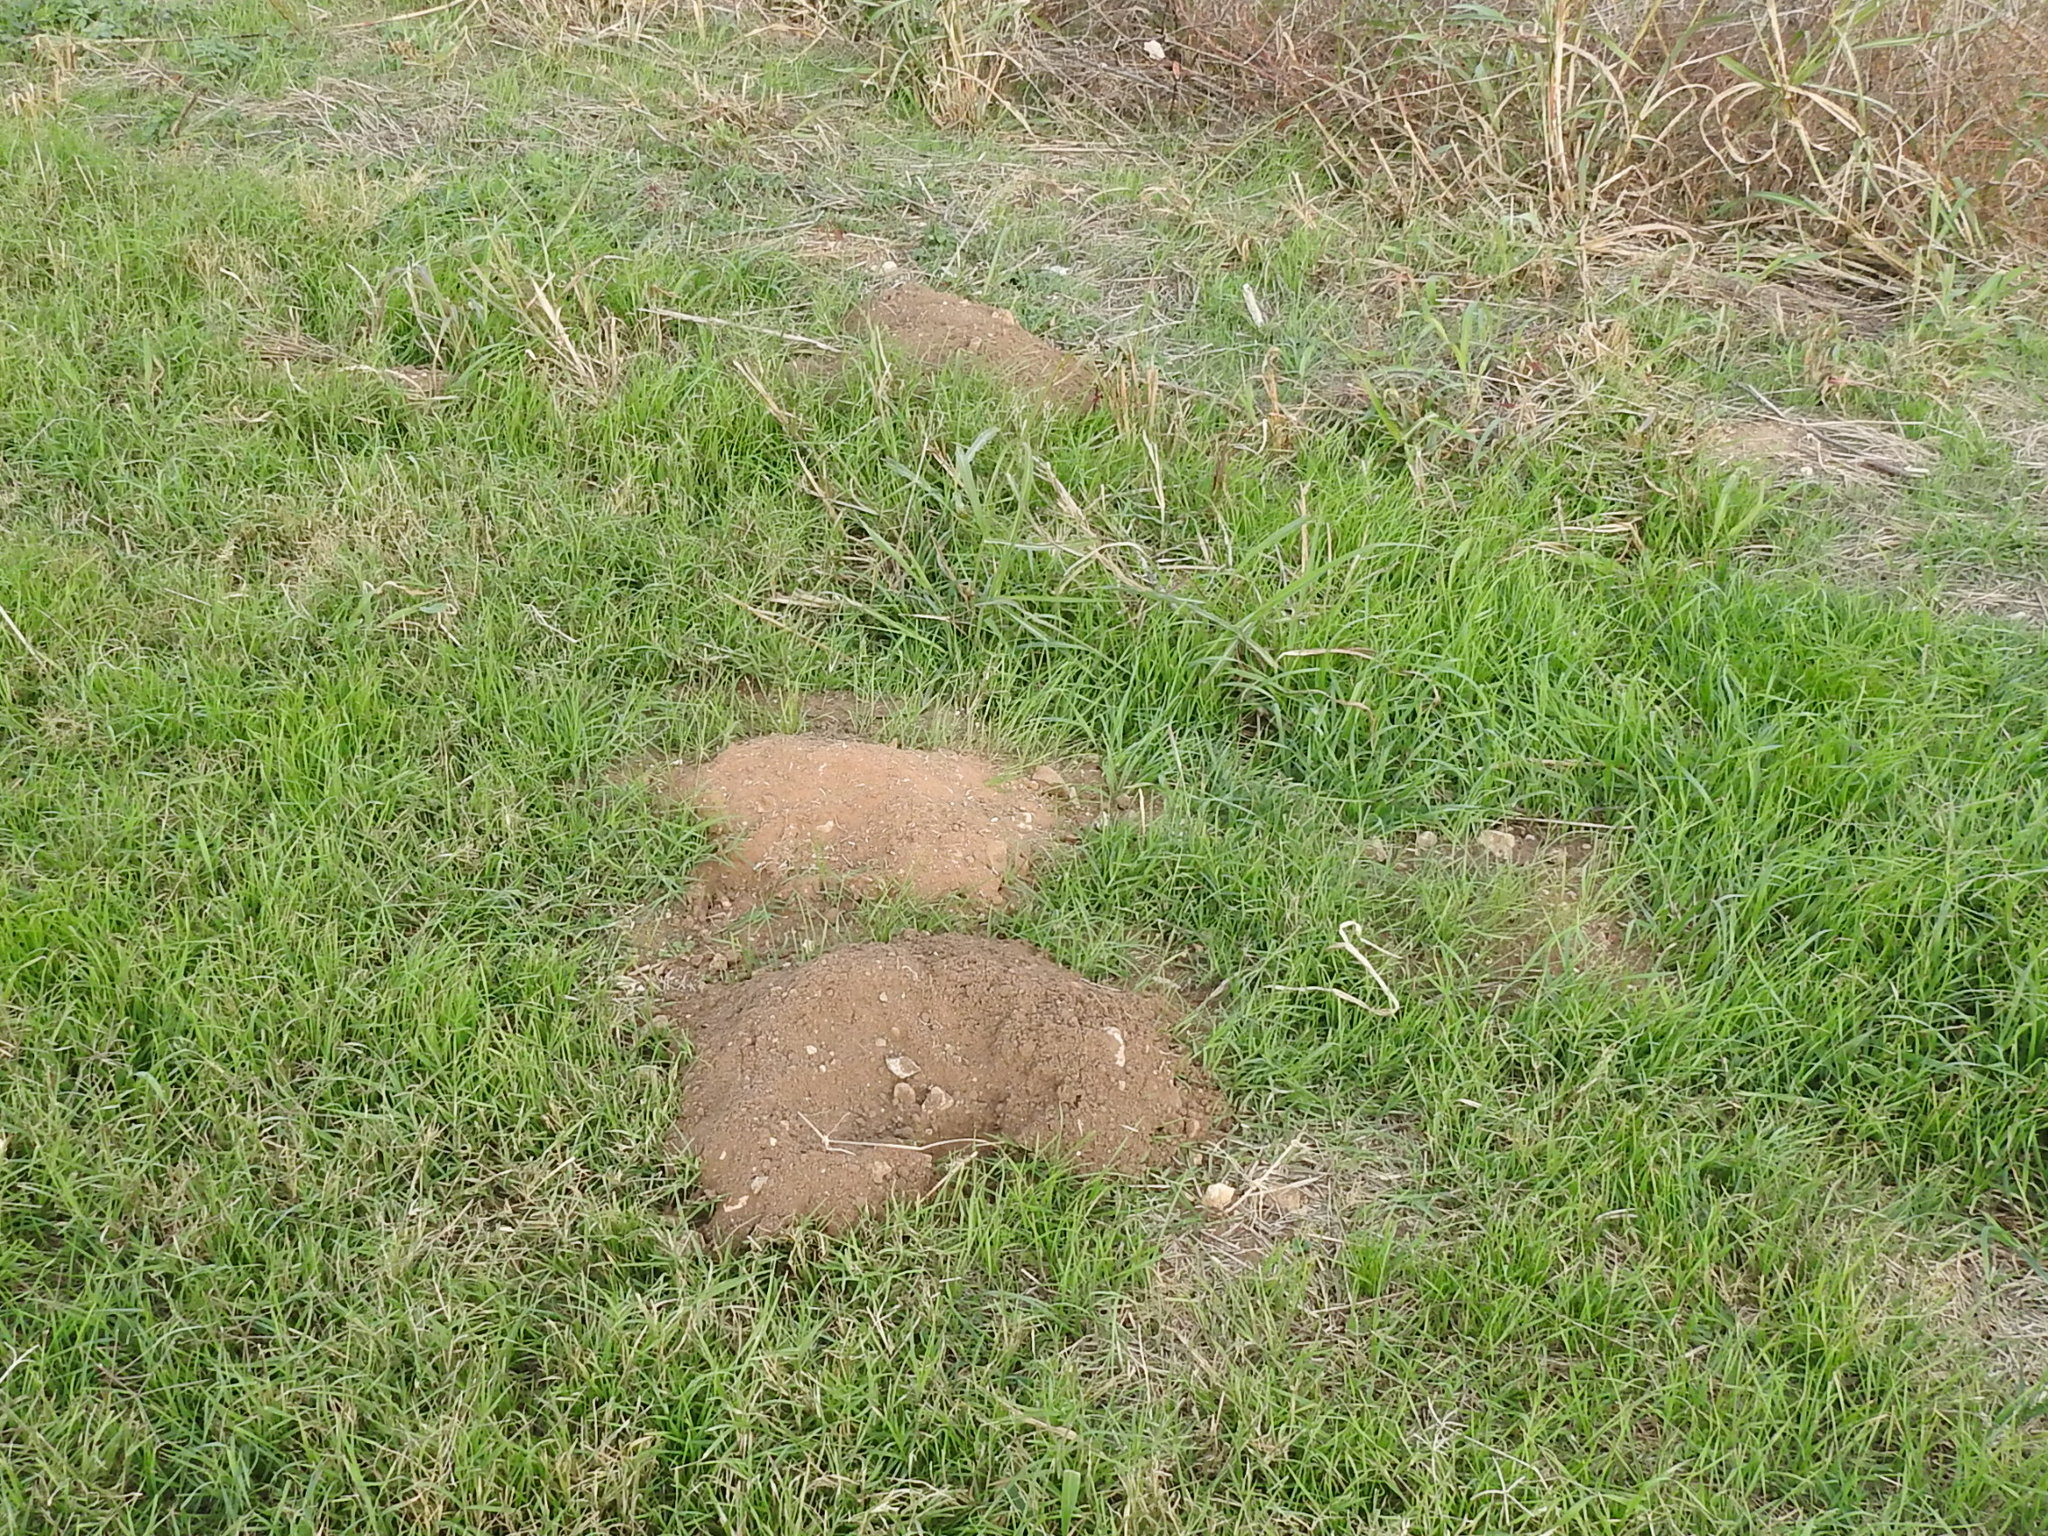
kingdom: Animalia
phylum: Chordata
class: Mammalia
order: Rodentia
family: Geomyidae
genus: Geomys
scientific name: Geomys bursarius
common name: Plains pocket gopher
